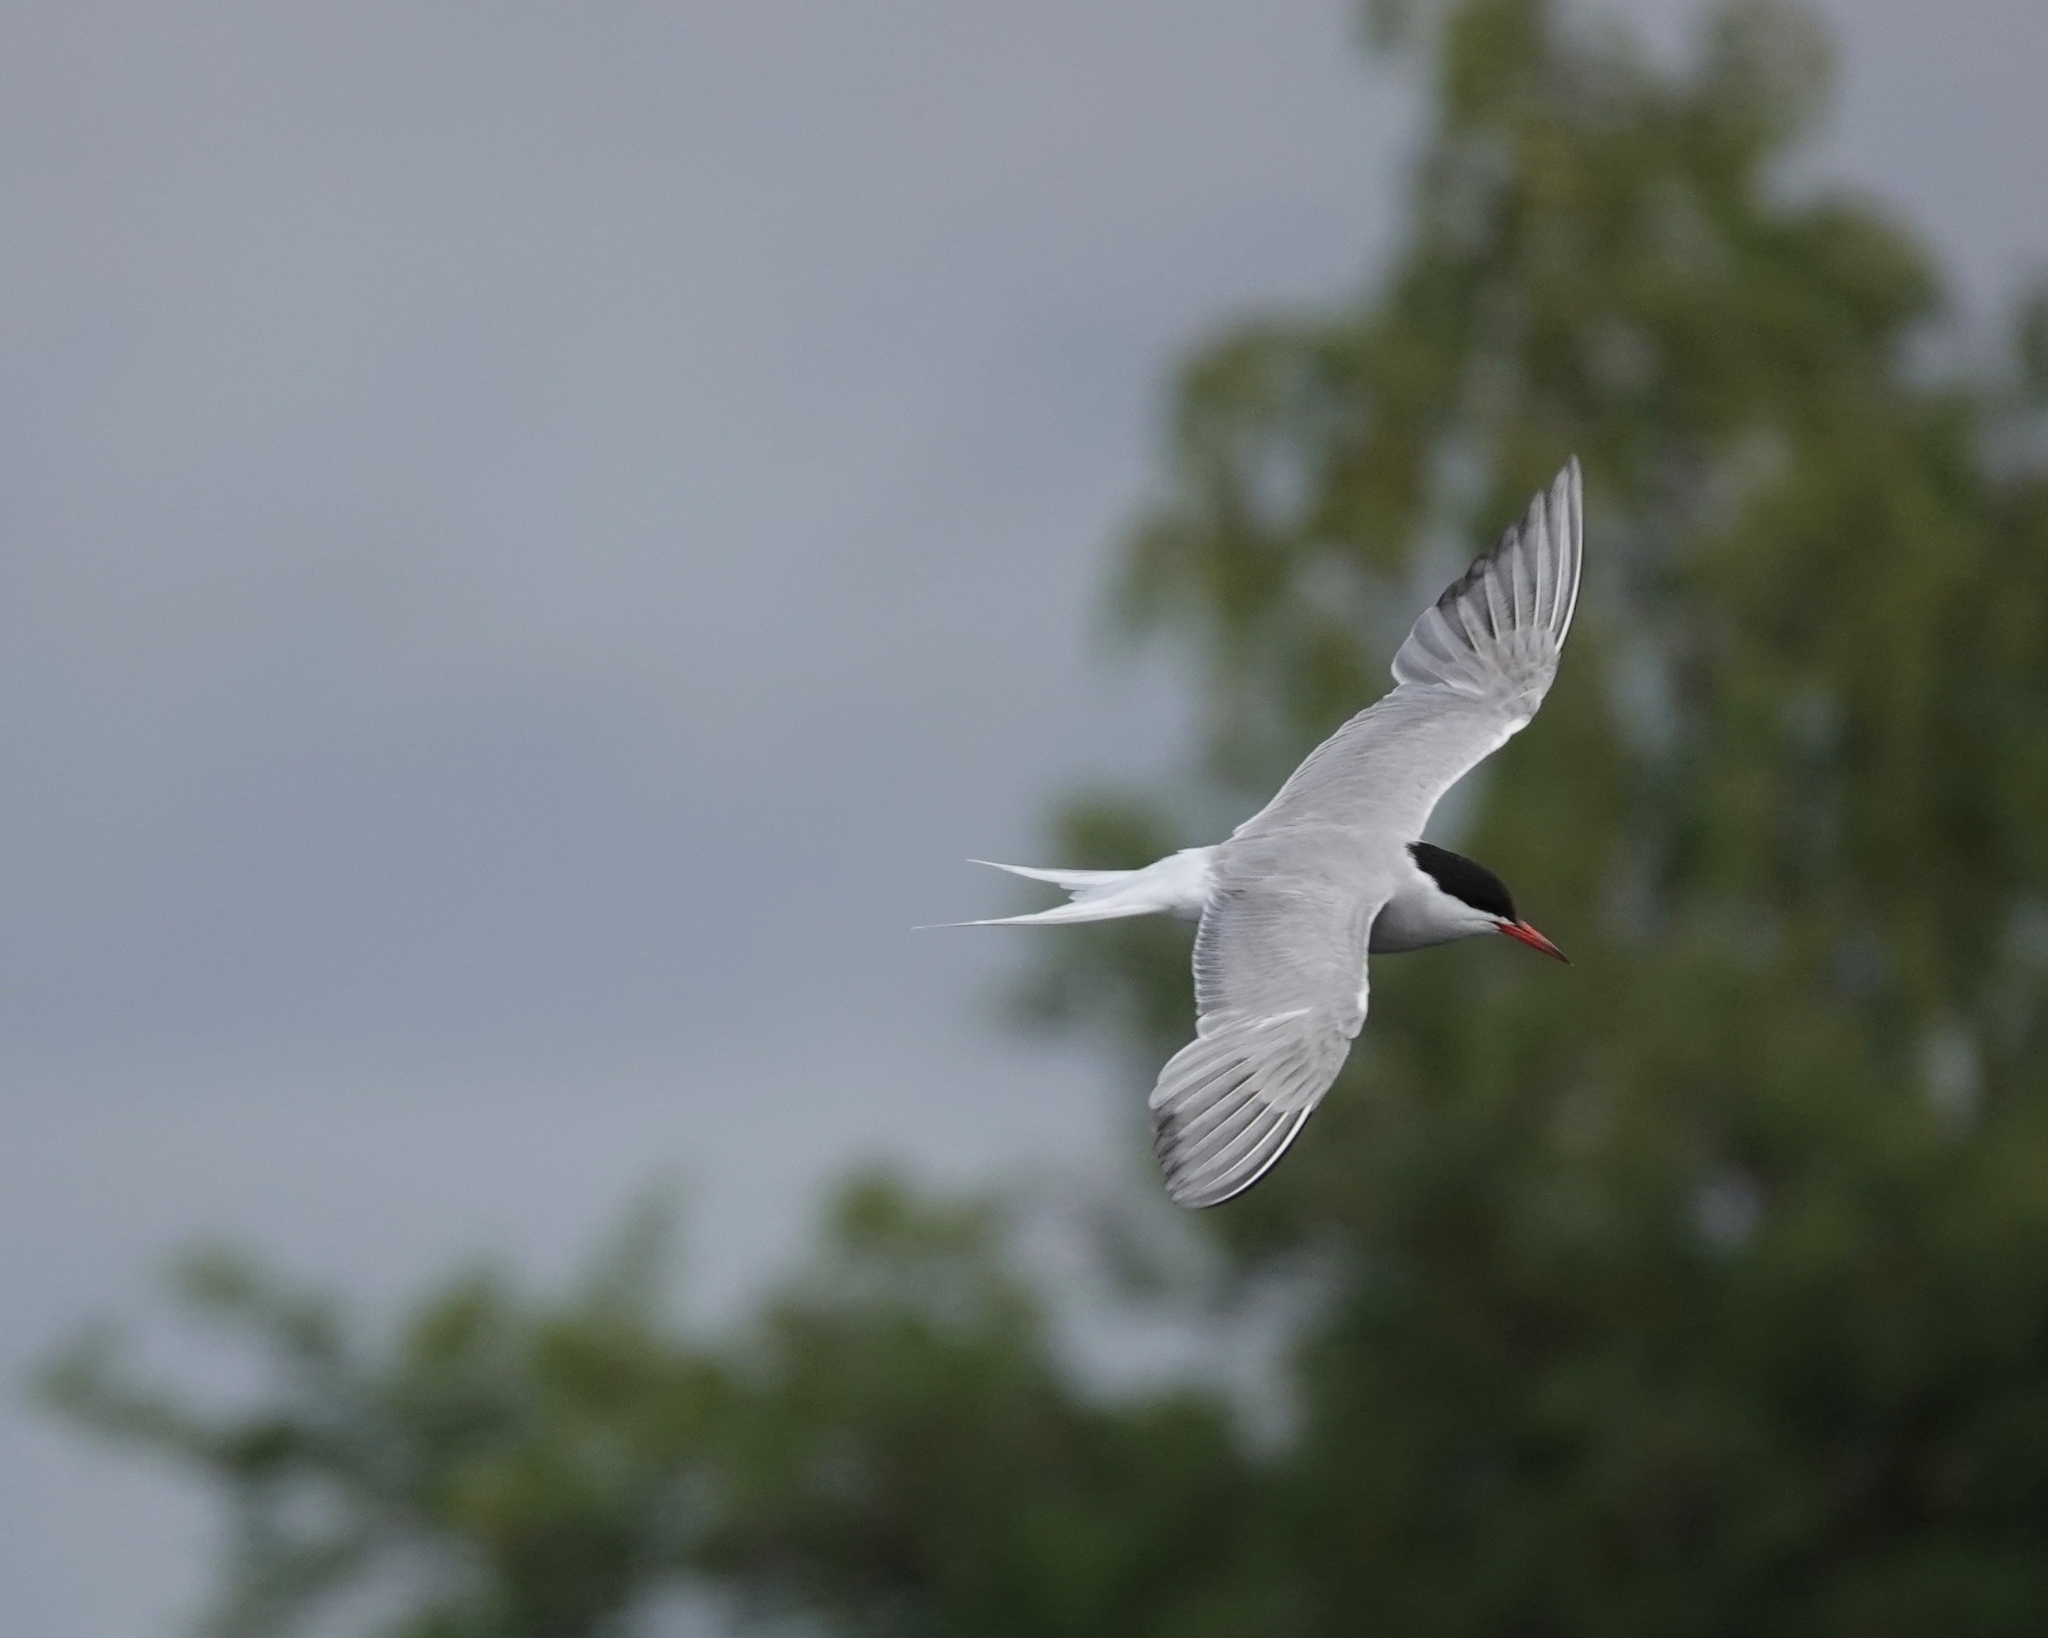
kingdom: Animalia
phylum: Chordata
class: Aves
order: Charadriiformes
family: Laridae
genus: Sterna
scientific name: Sterna hirundo
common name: Common tern
